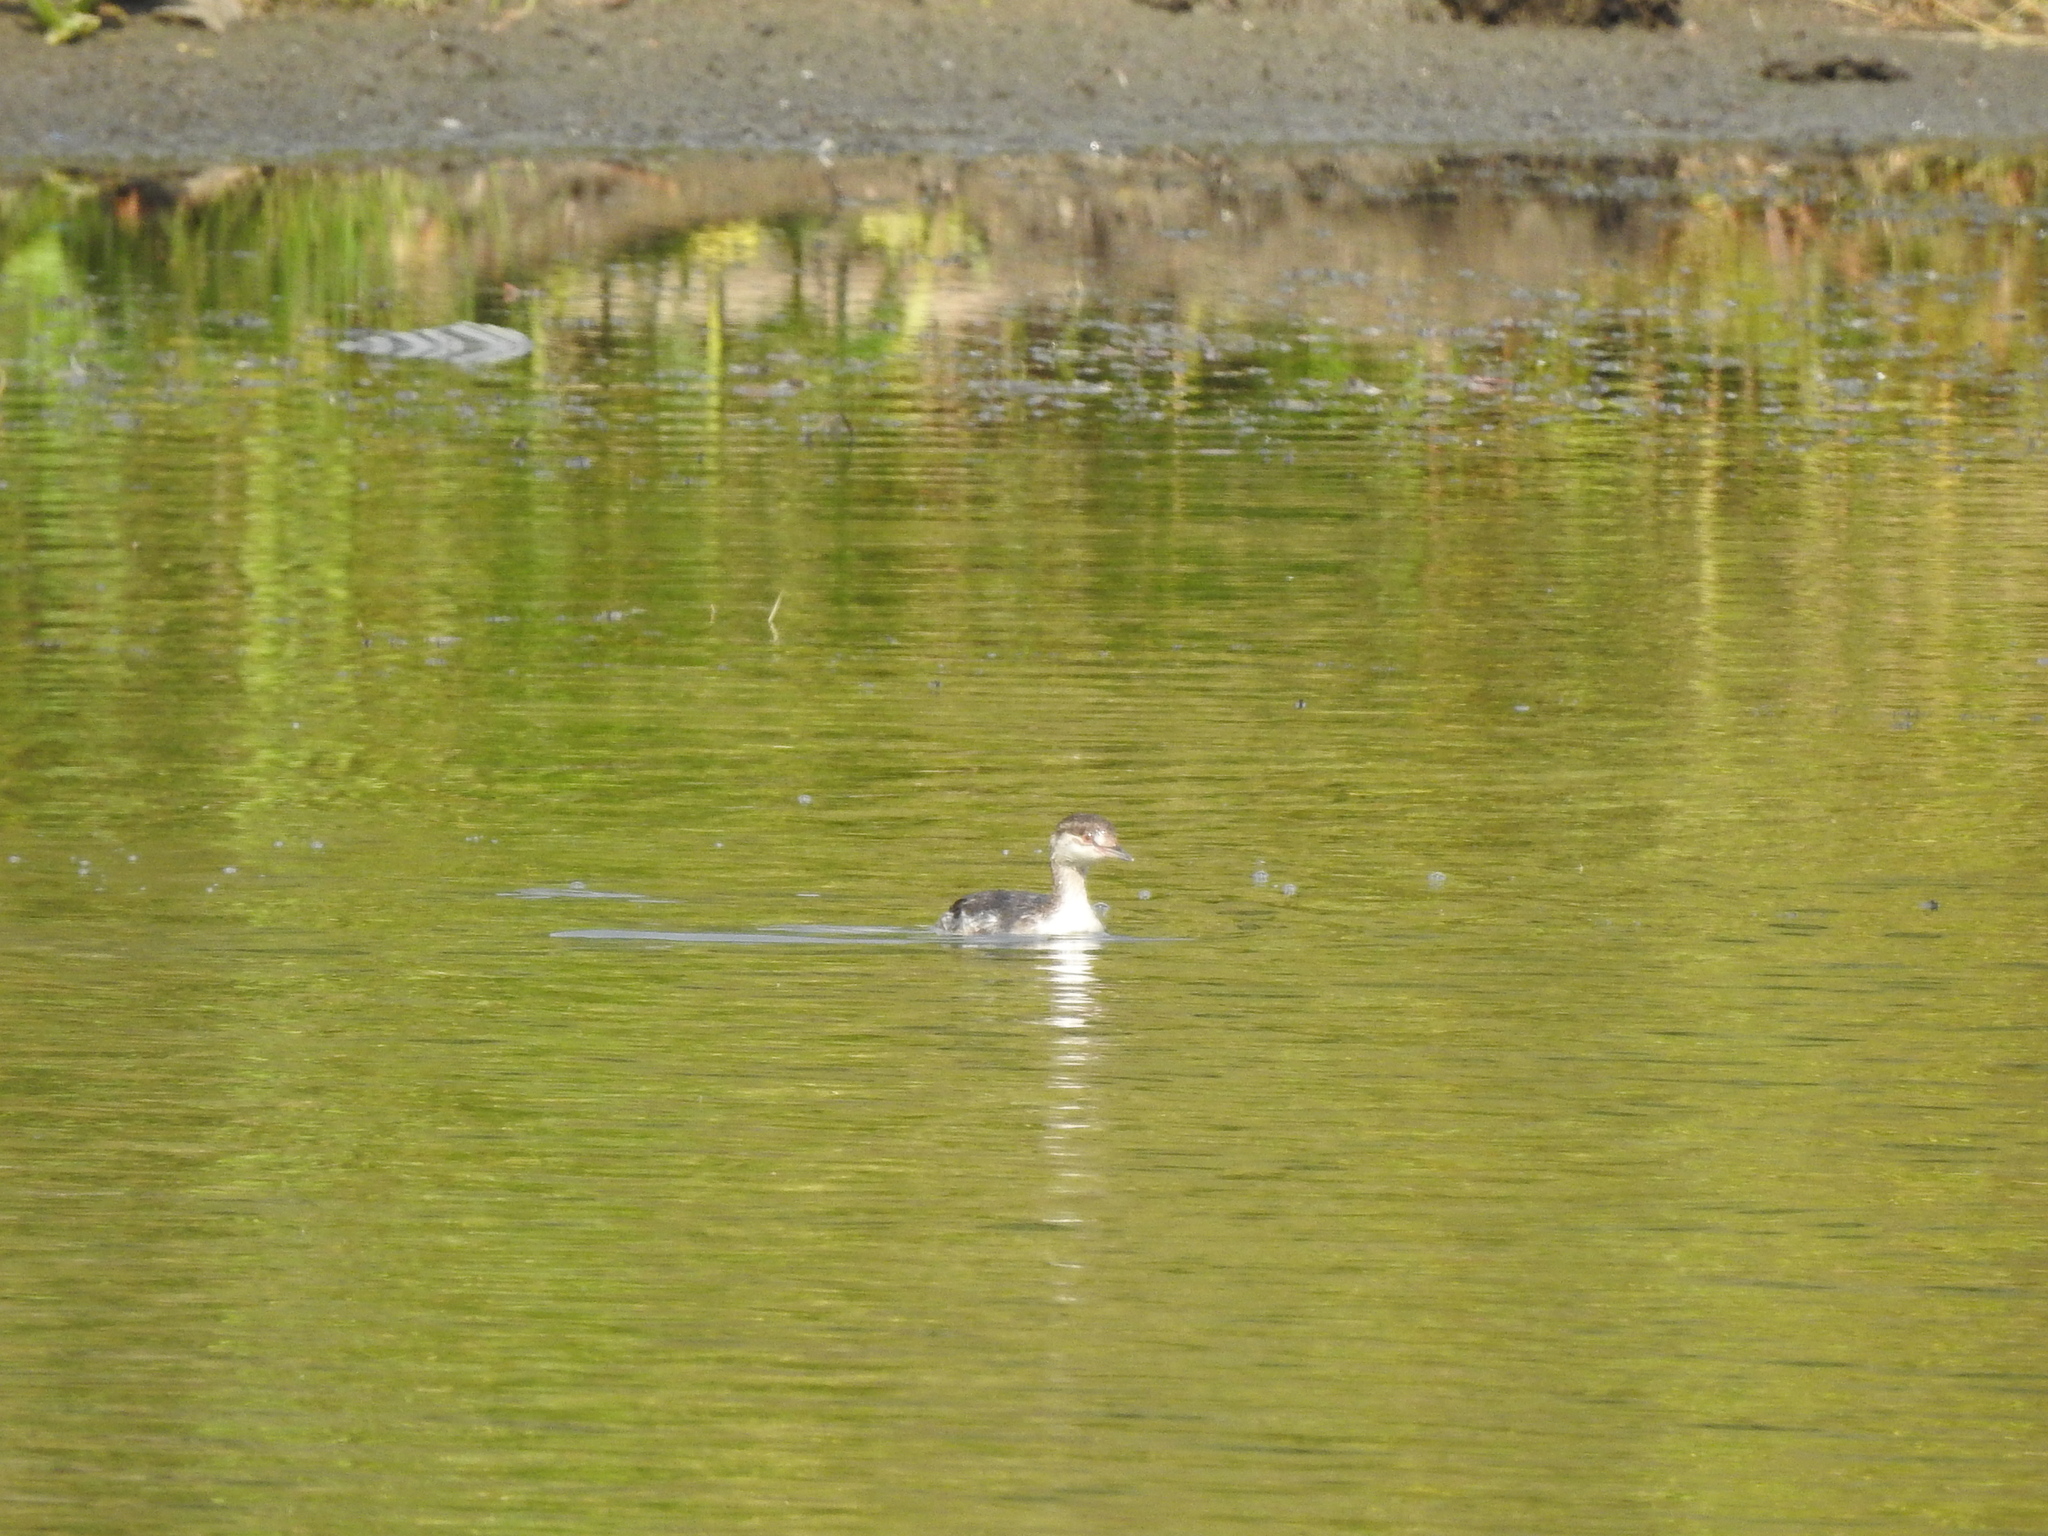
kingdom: Animalia
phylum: Chordata
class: Aves
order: Podicipediformes
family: Podicipedidae
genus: Podiceps
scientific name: Podiceps auritus
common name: Horned grebe
